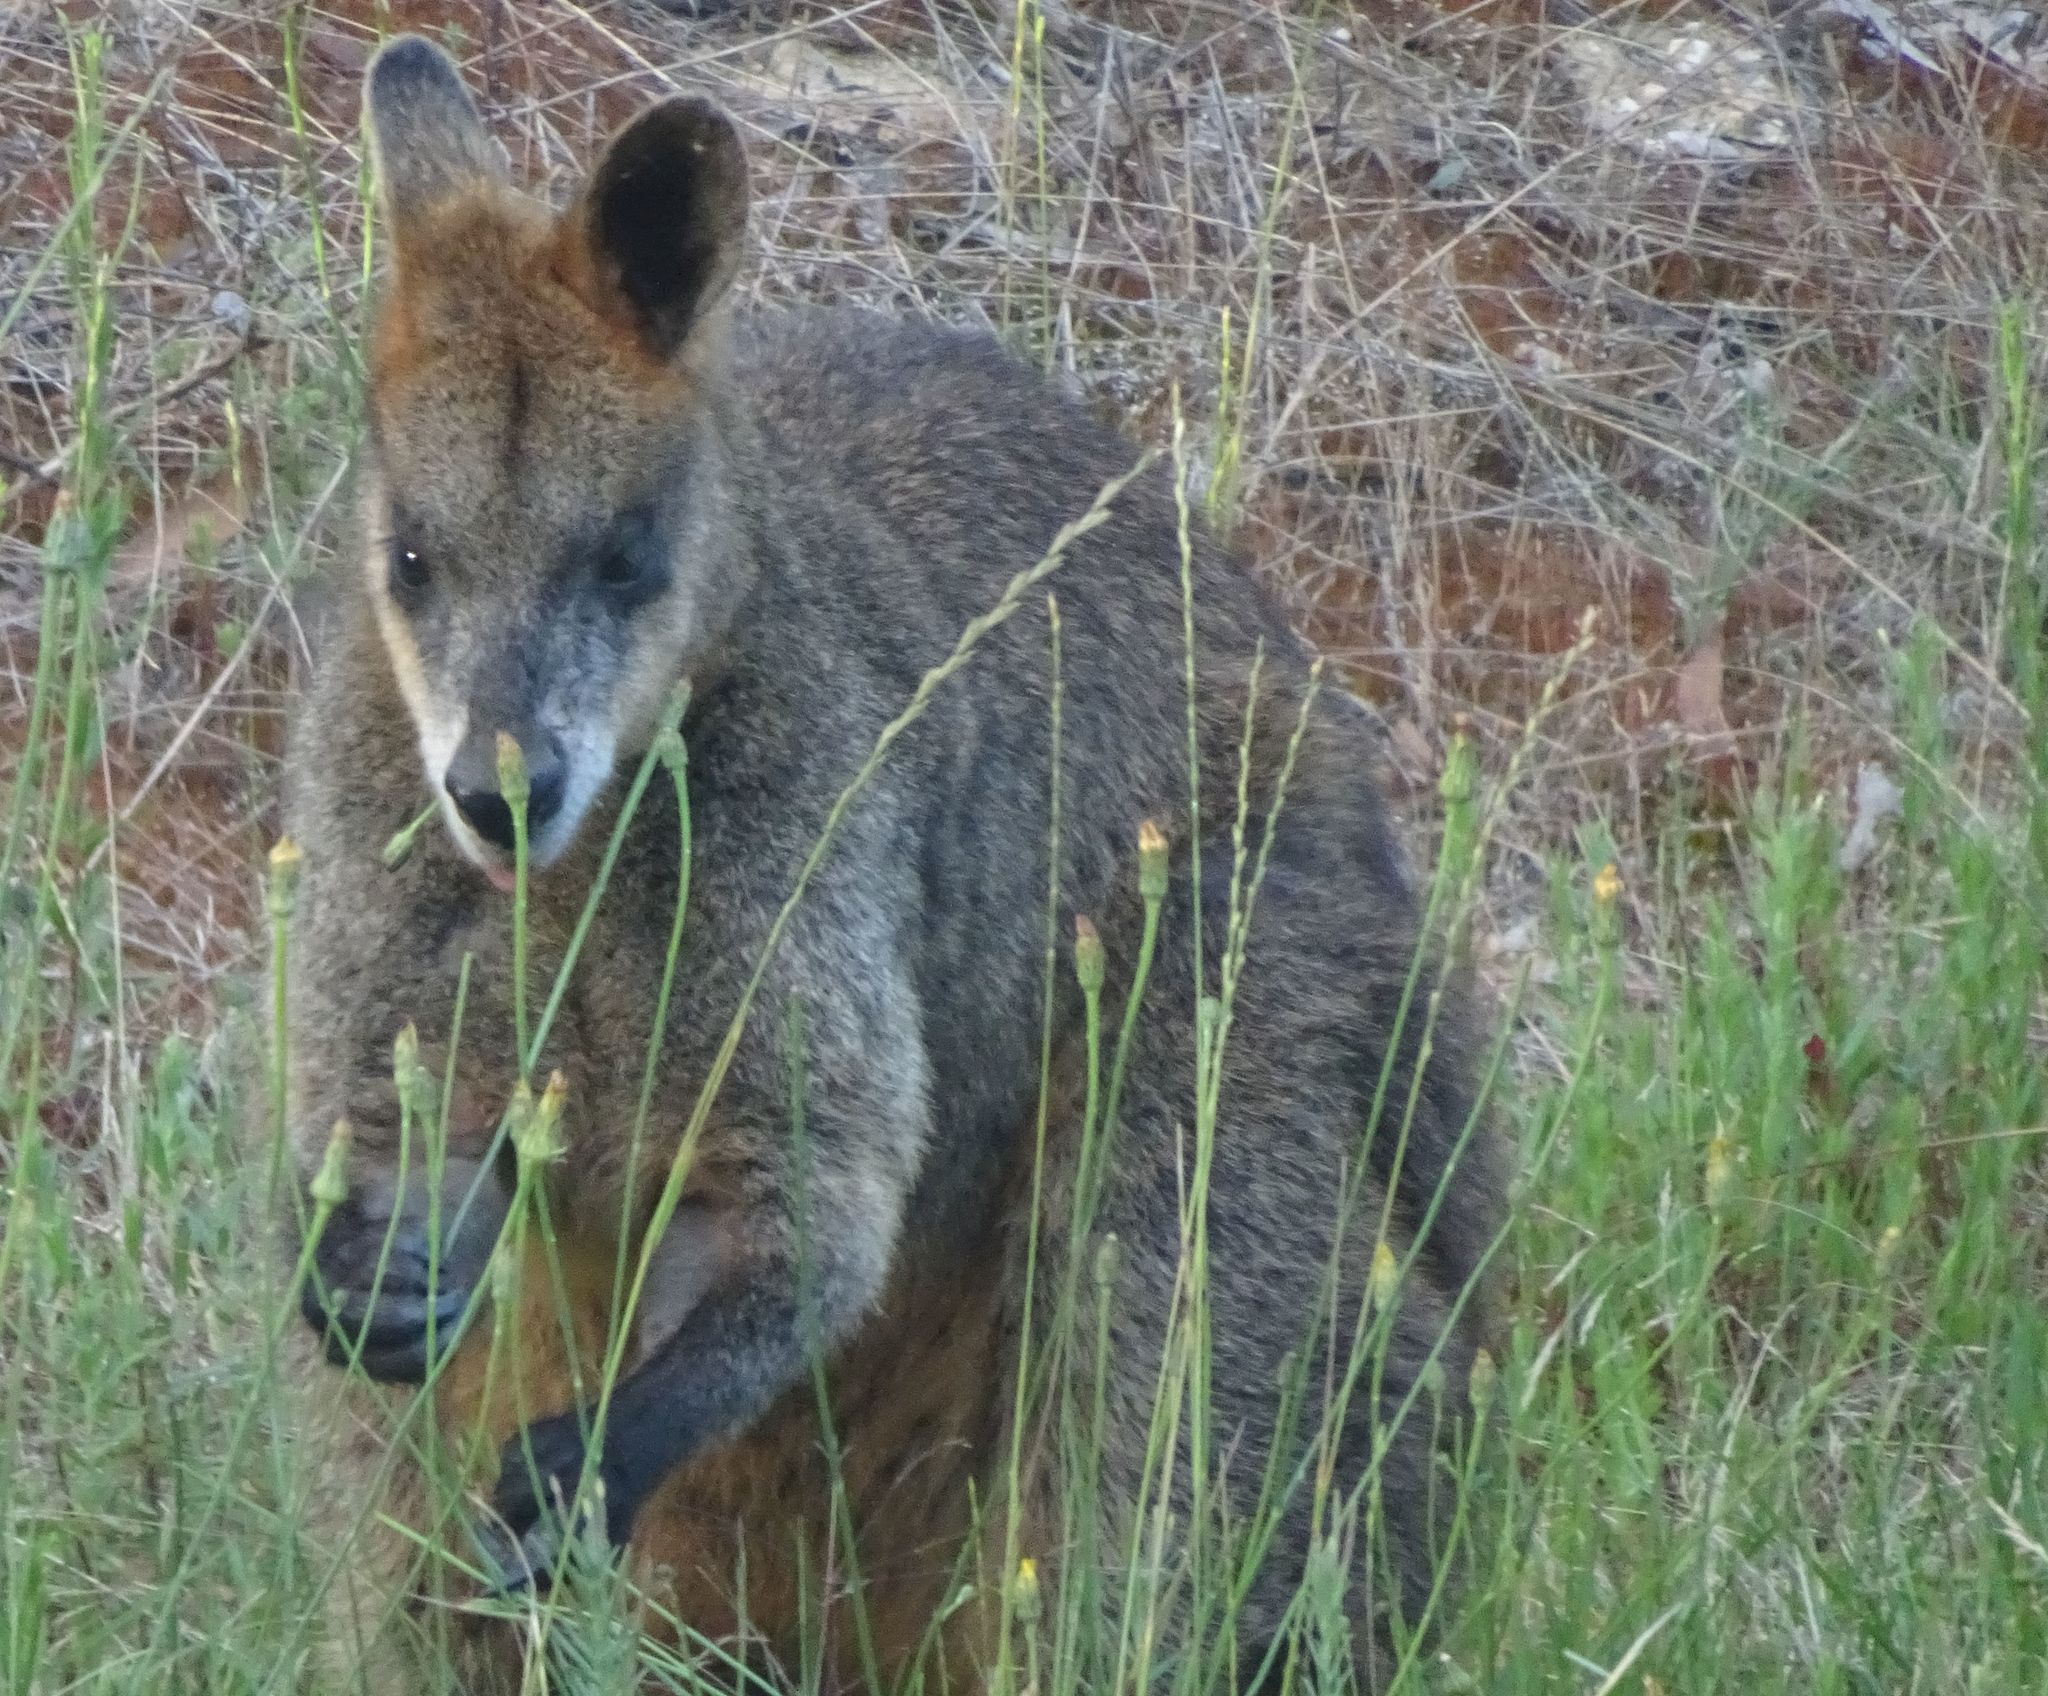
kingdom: Animalia
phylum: Chordata
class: Mammalia
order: Diprotodontia
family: Macropodidae
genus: Wallabia
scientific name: Wallabia bicolor
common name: Swamp wallaby
